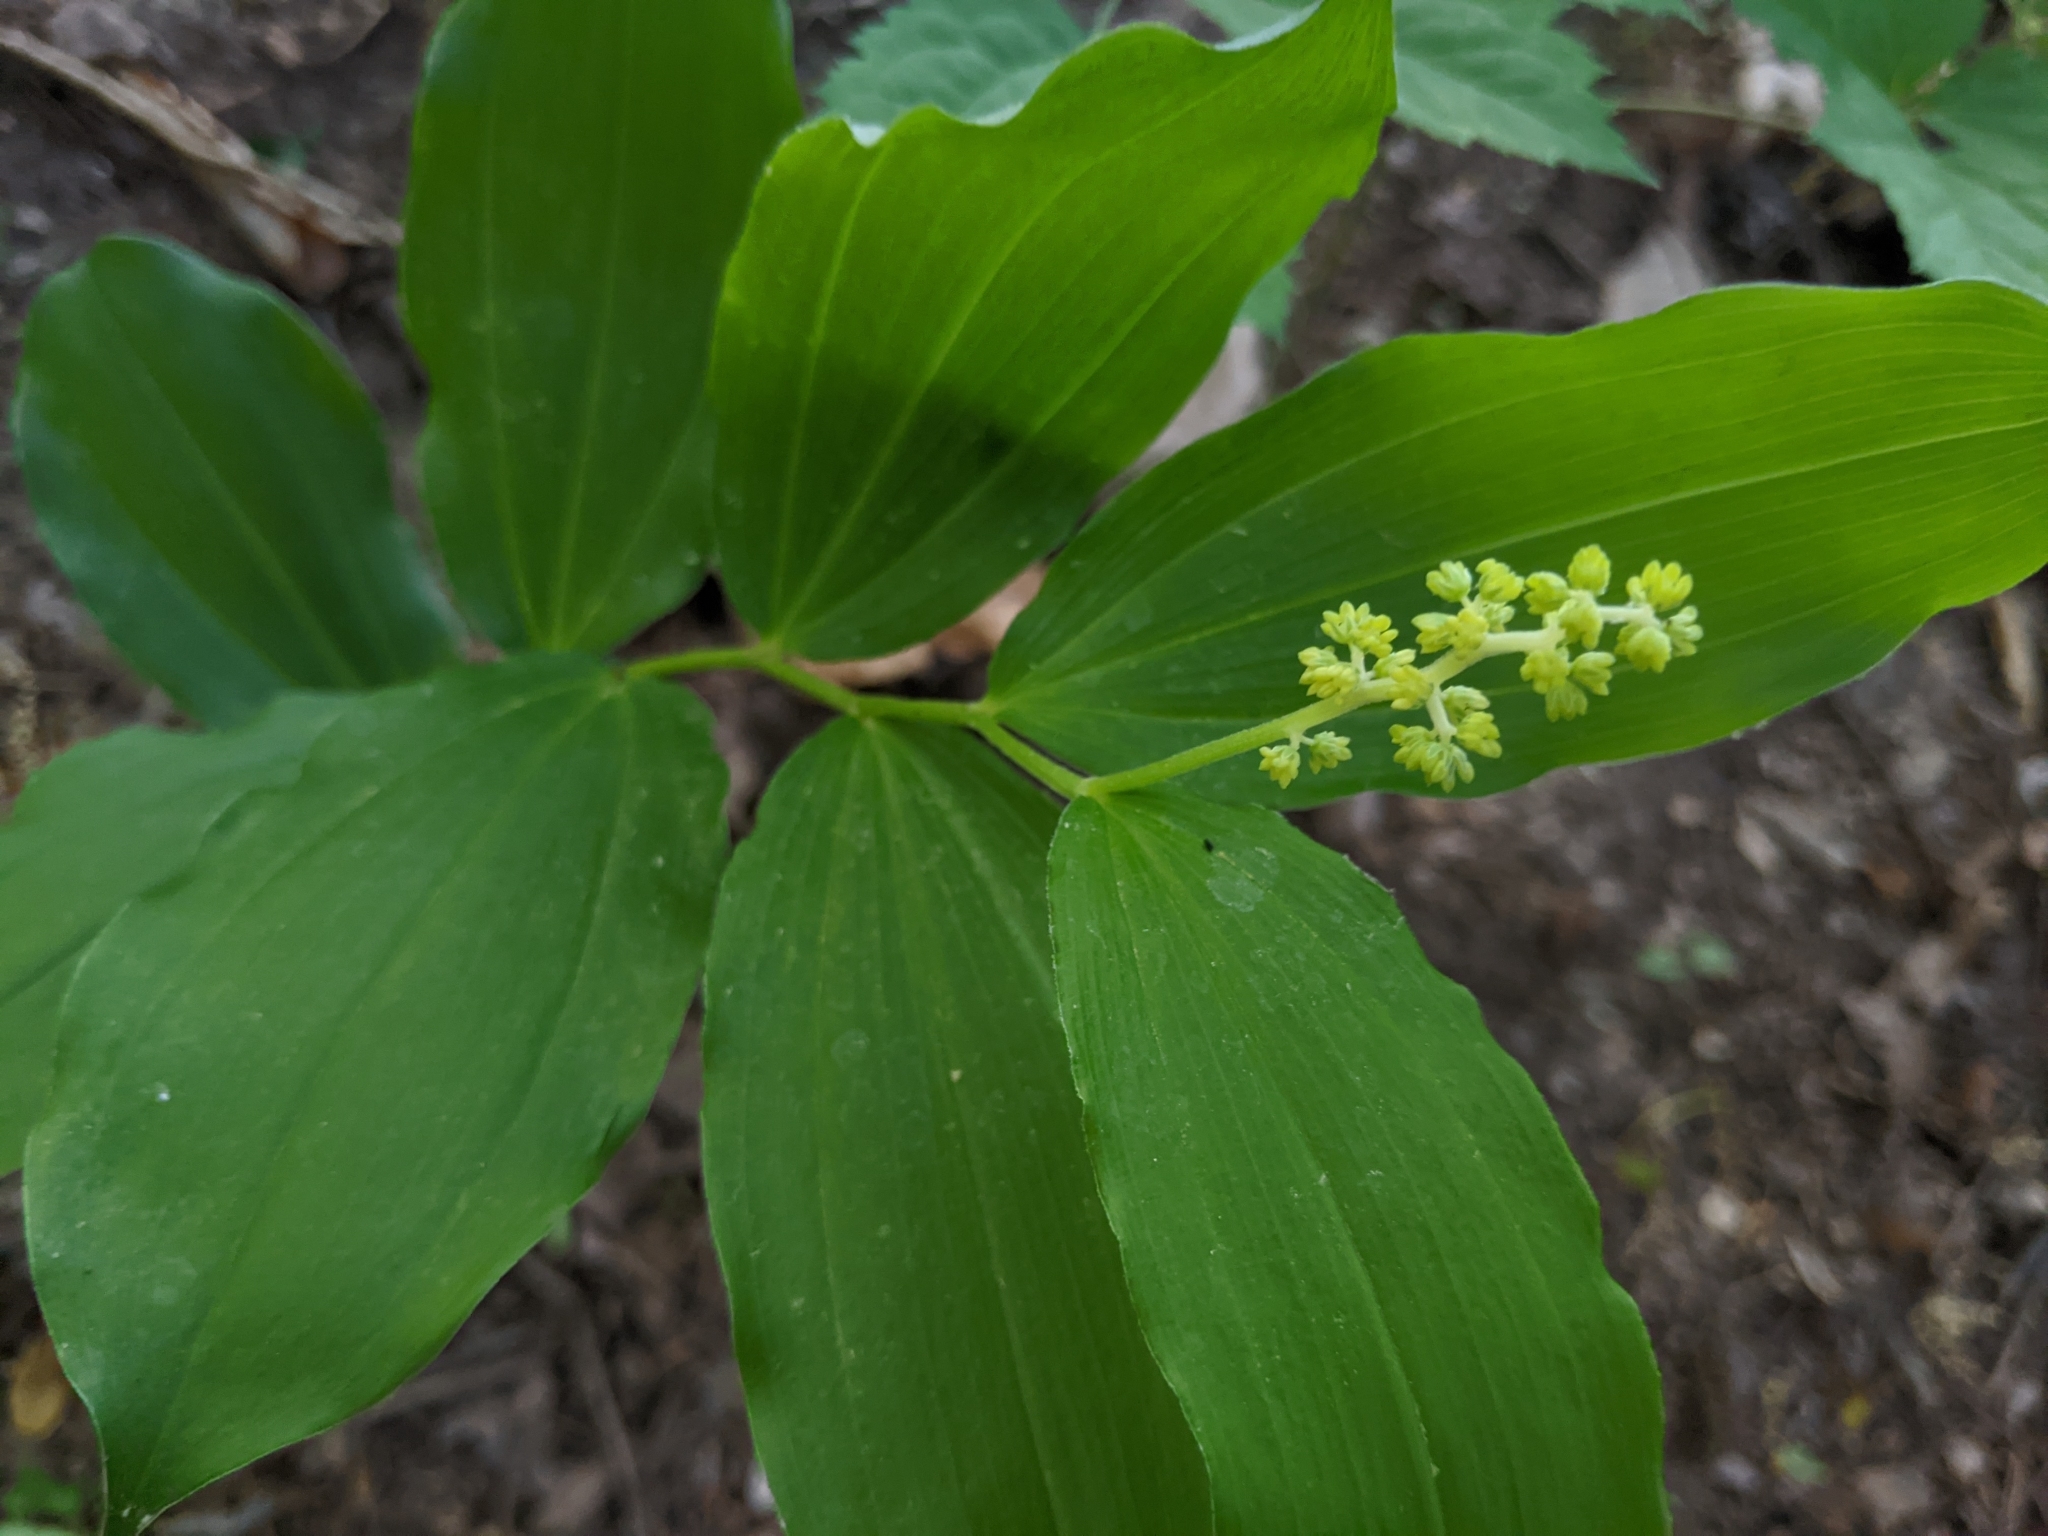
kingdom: Plantae
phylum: Tracheophyta
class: Liliopsida
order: Asparagales
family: Asparagaceae
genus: Maianthemum
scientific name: Maianthemum racemosum
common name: False spikenard
